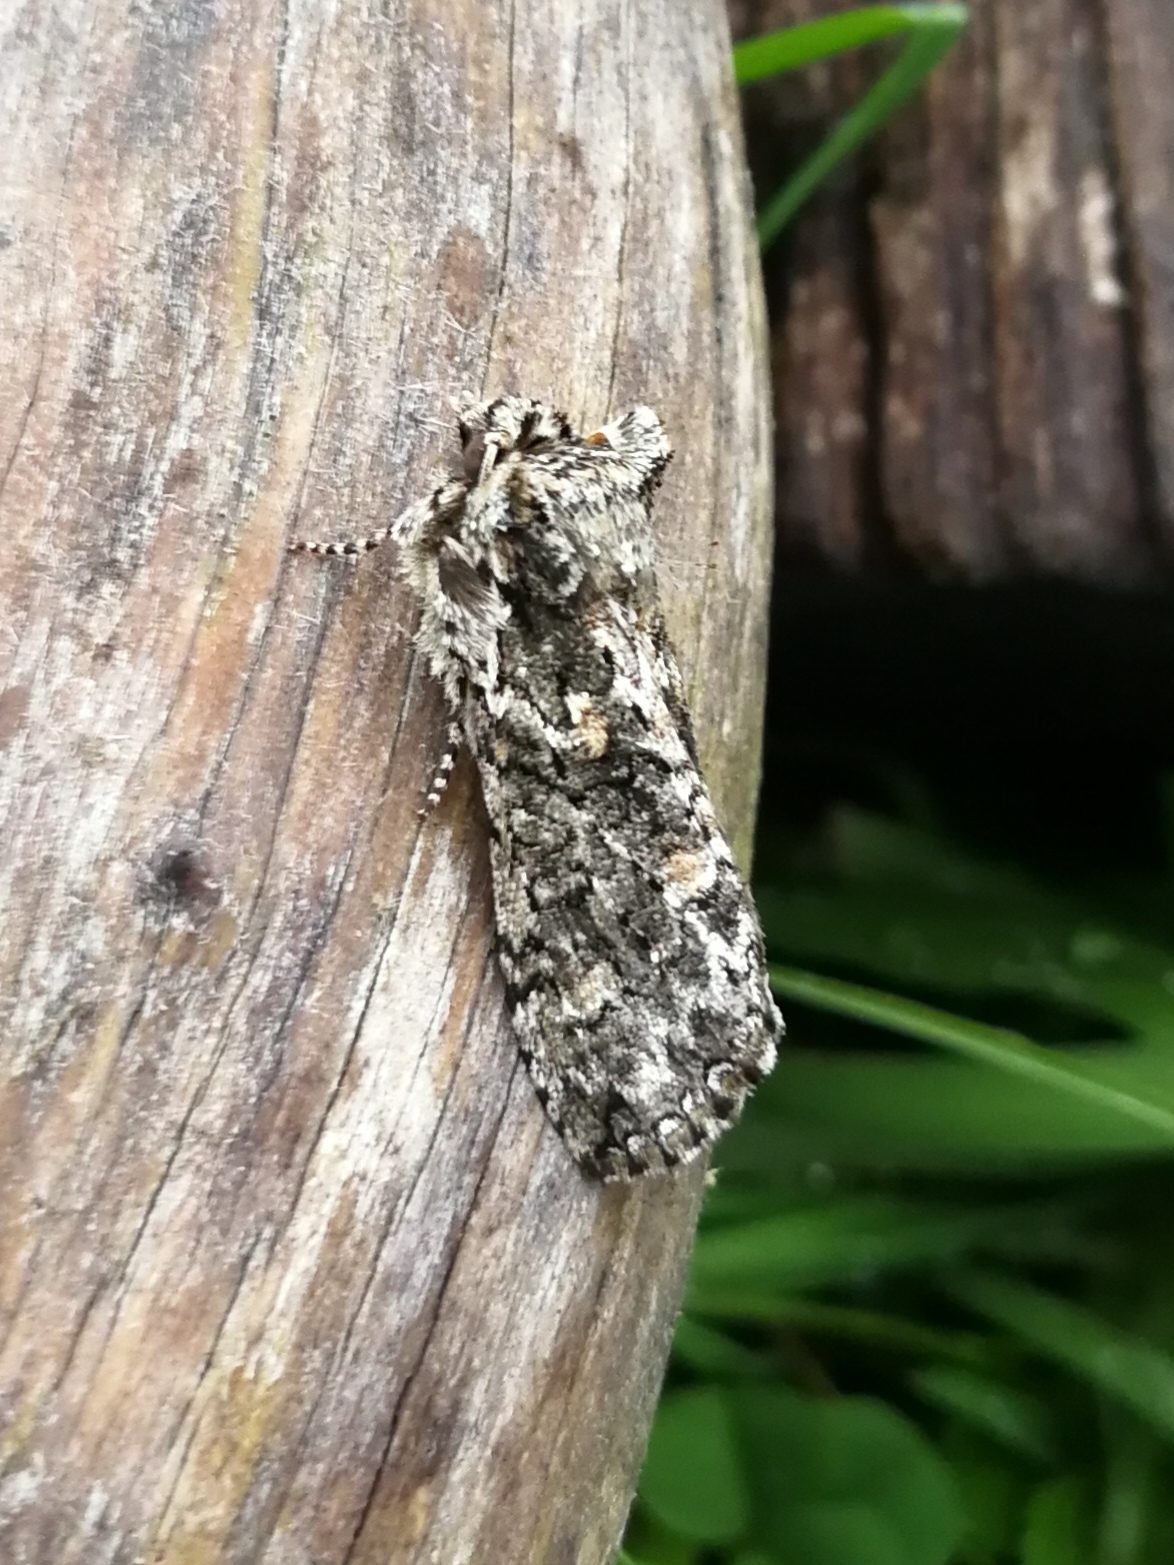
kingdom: Animalia
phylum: Arthropoda
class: Insecta
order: Lepidoptera
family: Drepanidae
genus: Polyploca
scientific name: Polyploca ridens
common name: Frosted green
